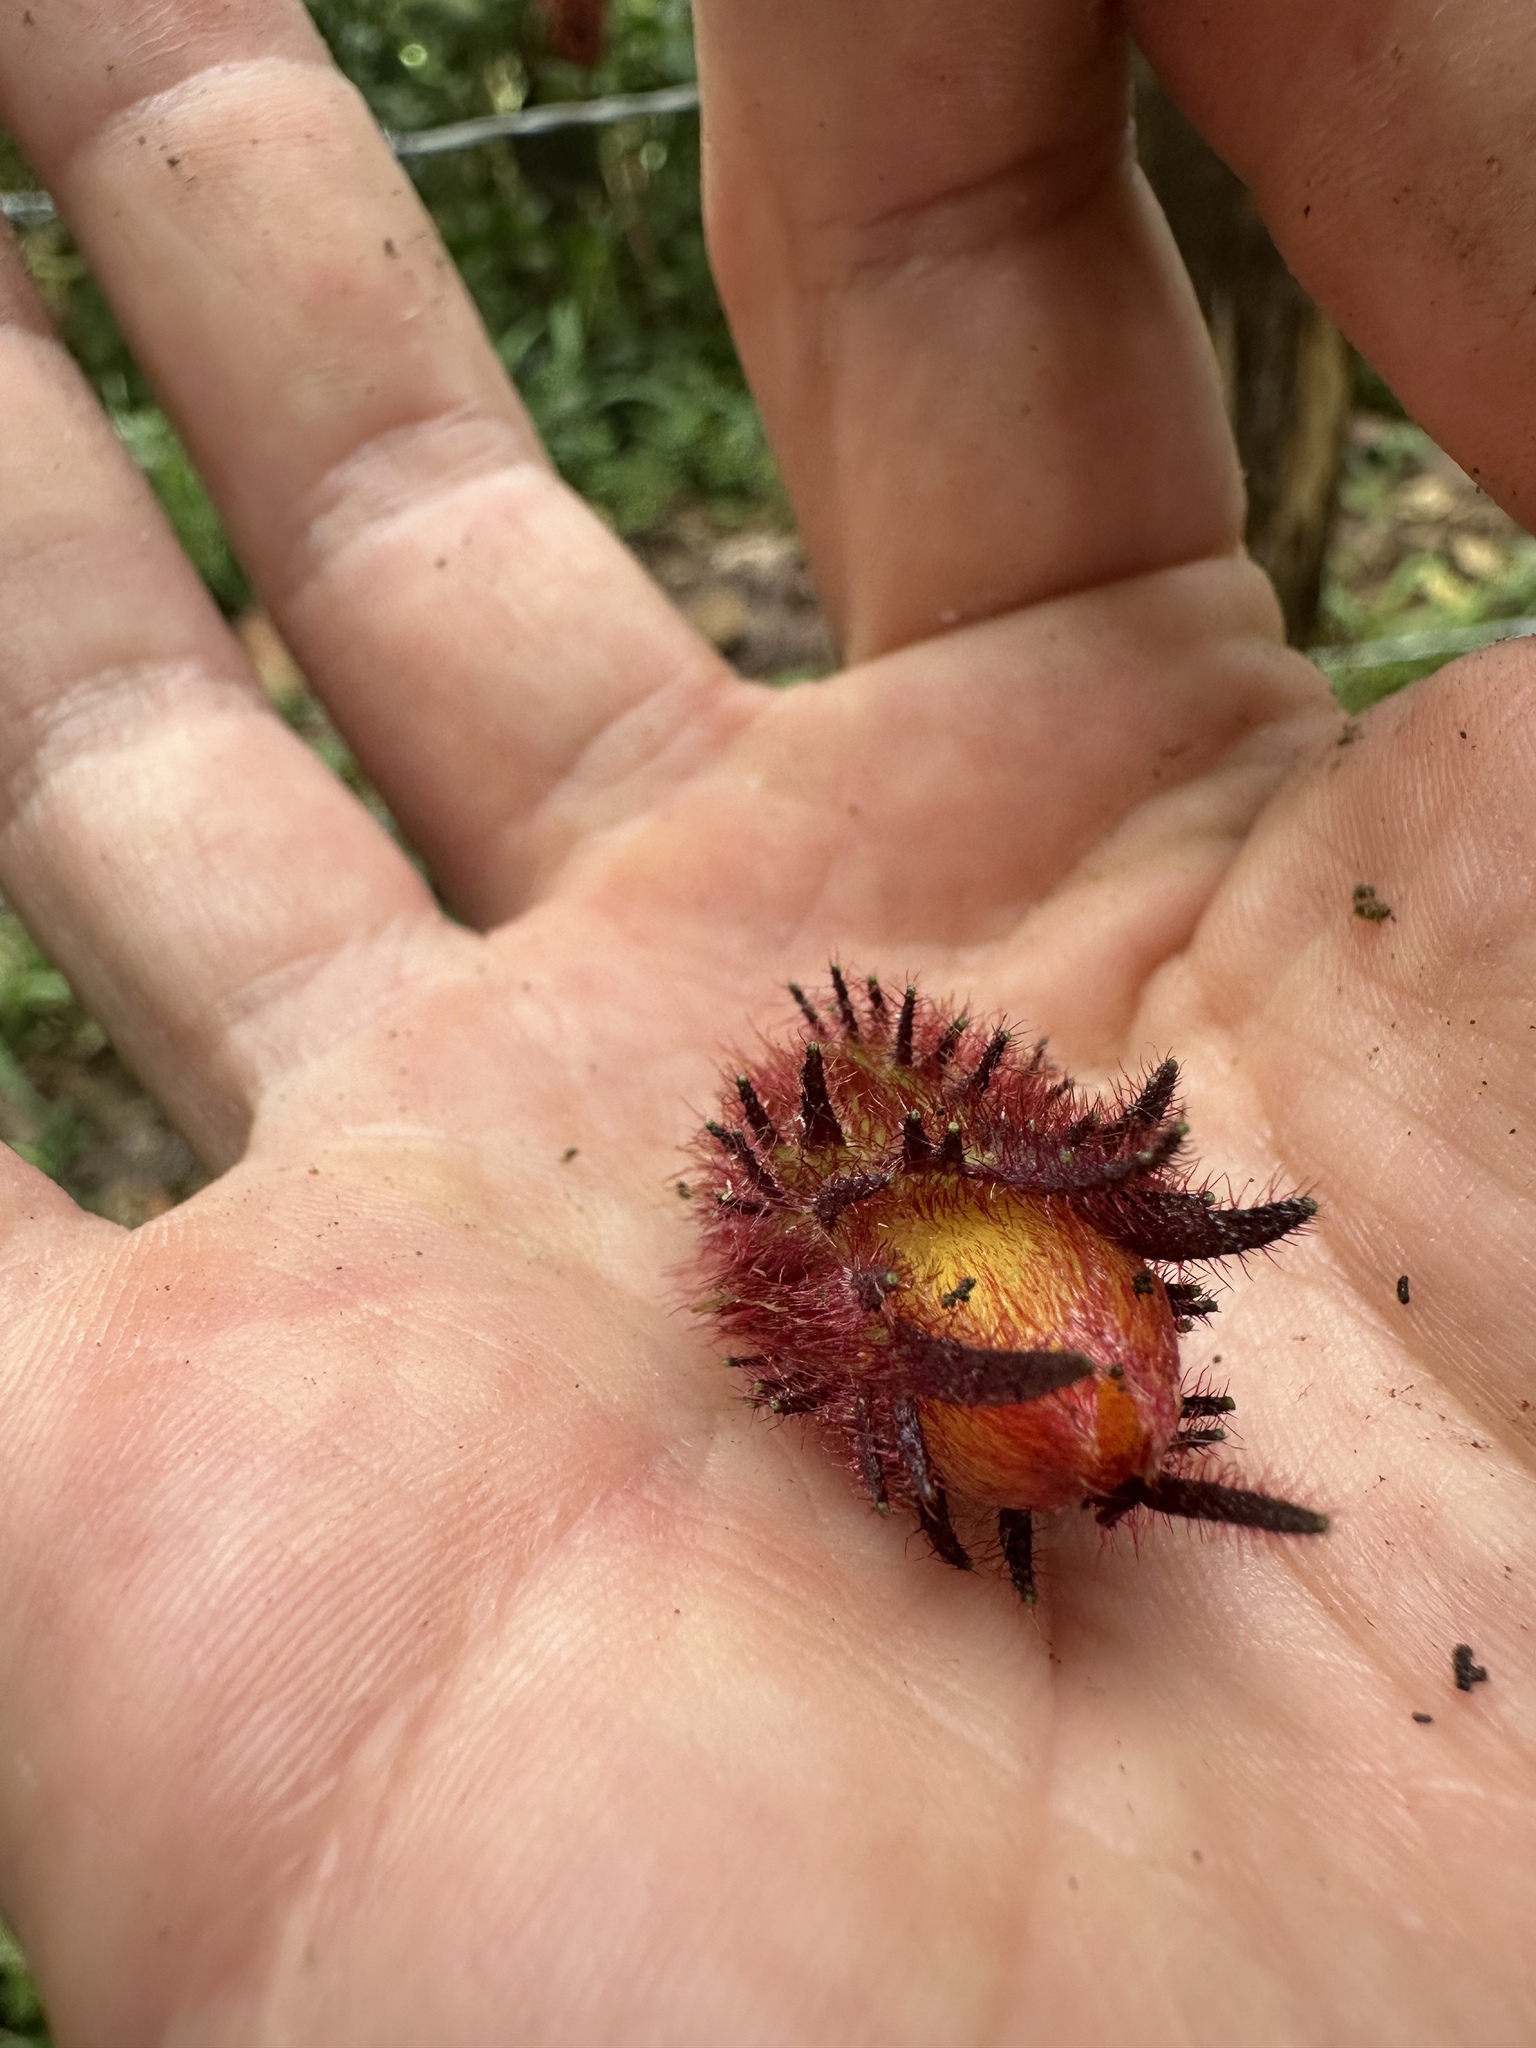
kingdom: Plantae
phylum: Tracheophyta
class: Magnoliopsida
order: Lamiales
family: Gesneriaceae
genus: Alloplectus
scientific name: Alloplectus weirii
